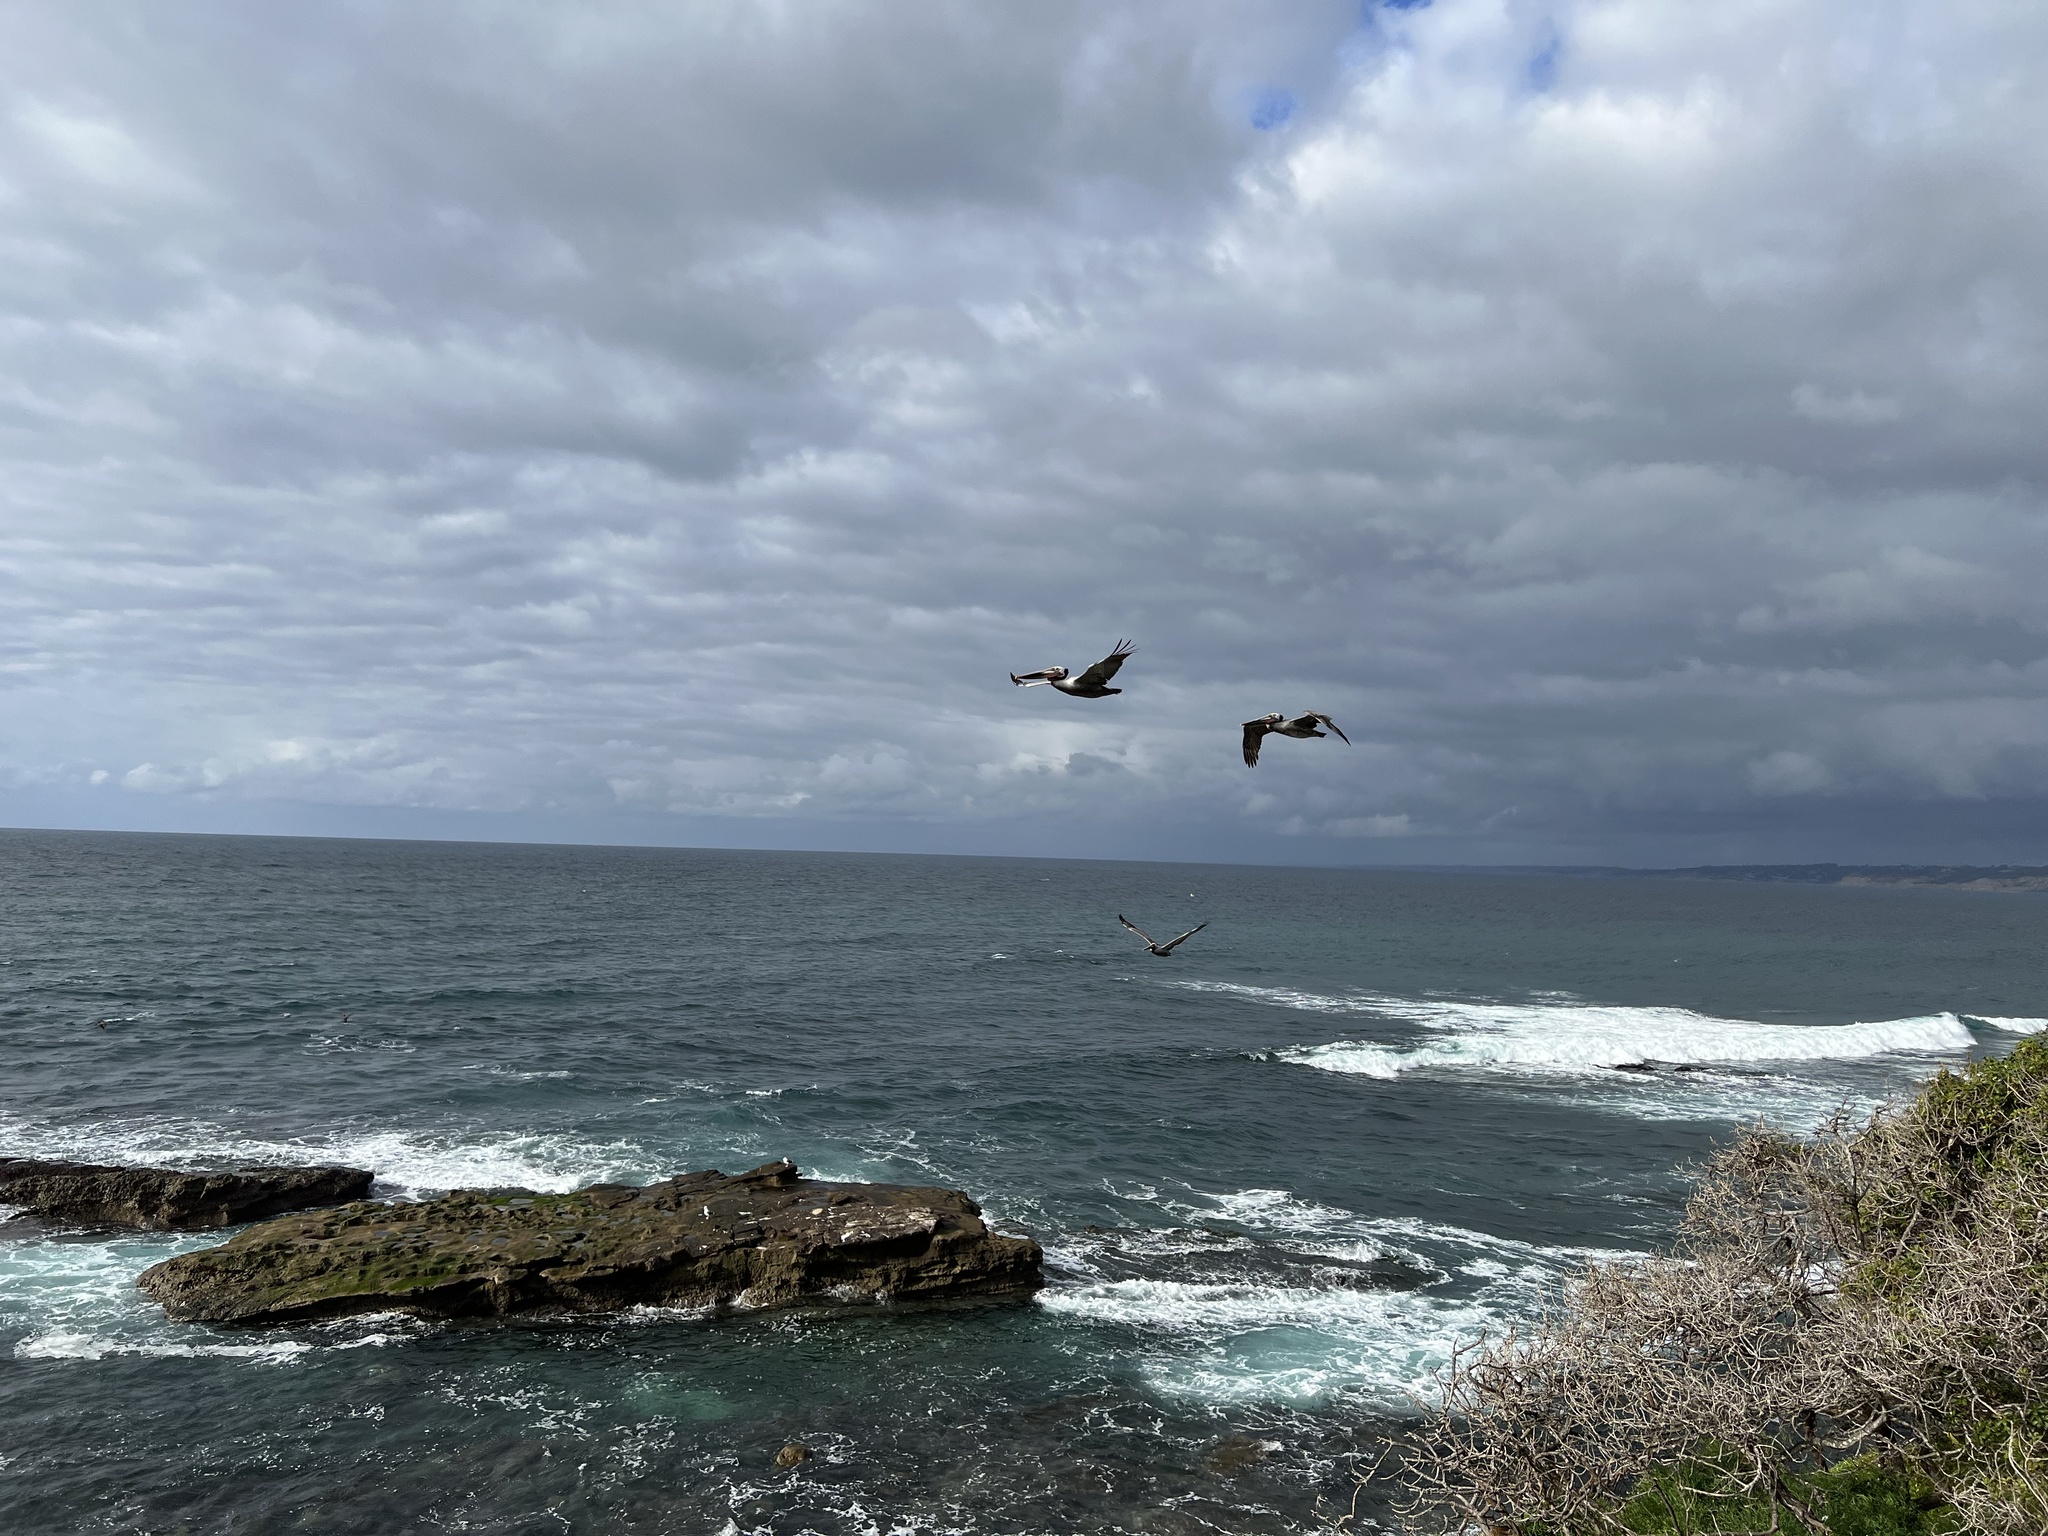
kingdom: Animalia
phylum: Chordata
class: Aves
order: Pelecaniformes
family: Pelecanidae
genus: Pelecanus
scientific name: Pelecanus occidentalis
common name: Brown pelican
